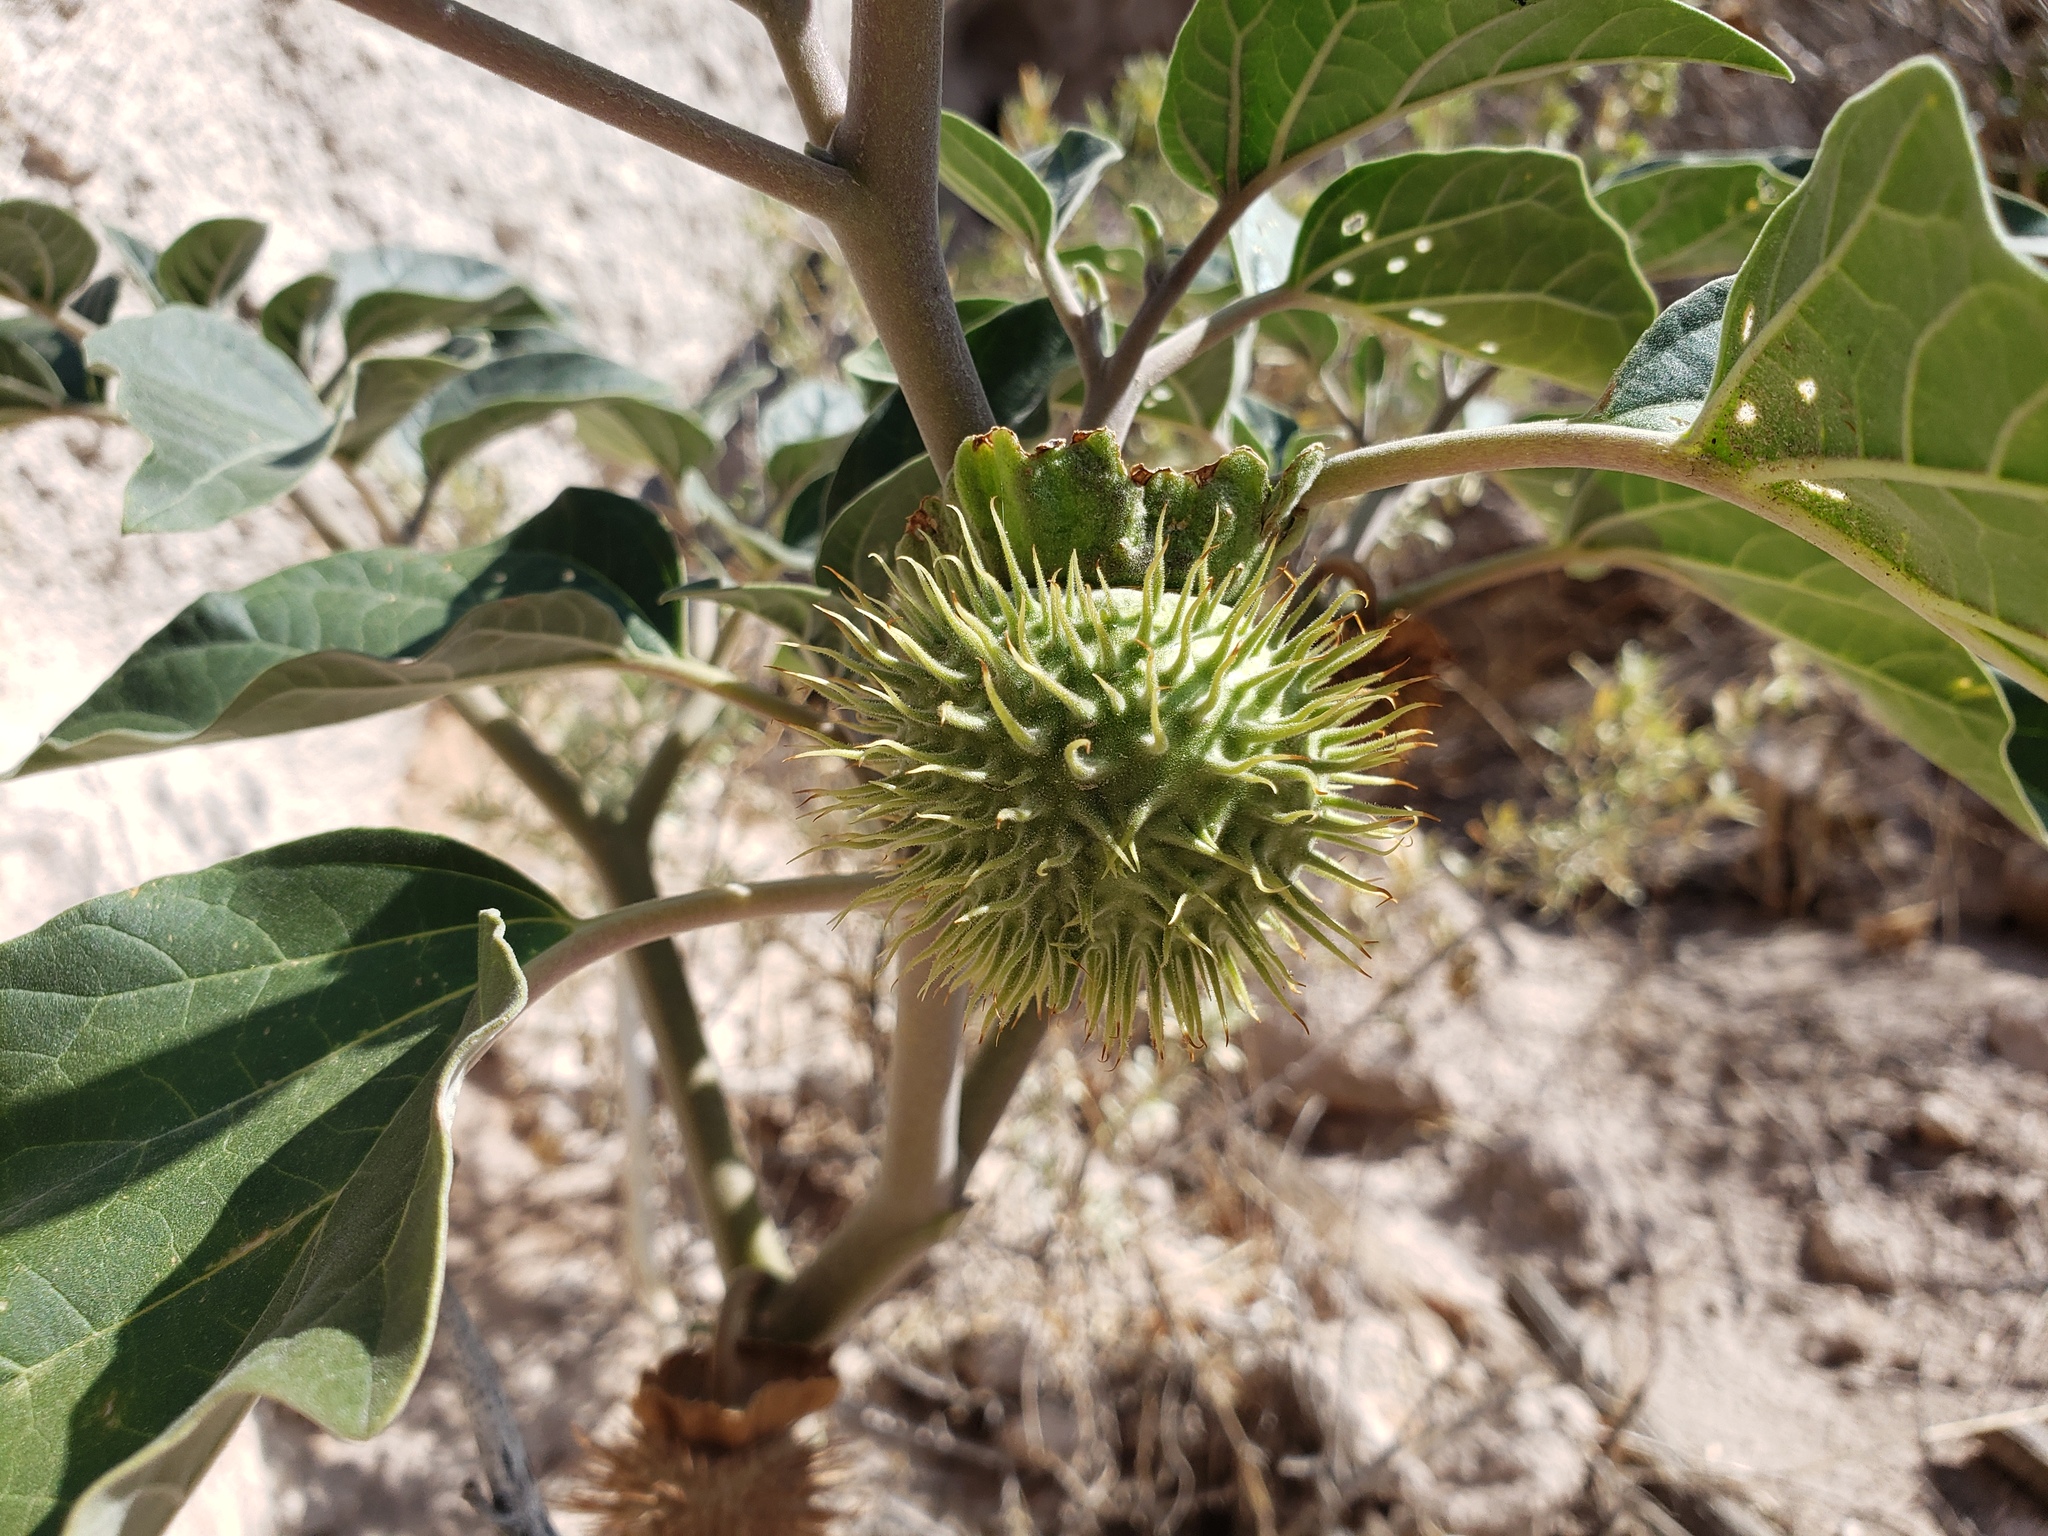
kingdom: Plantae
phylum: Tracheophyta
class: Magnoliopsida
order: Solanales
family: Solanaceae
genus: Datura
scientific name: Datura wrightii
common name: Sacred thorn-apple
